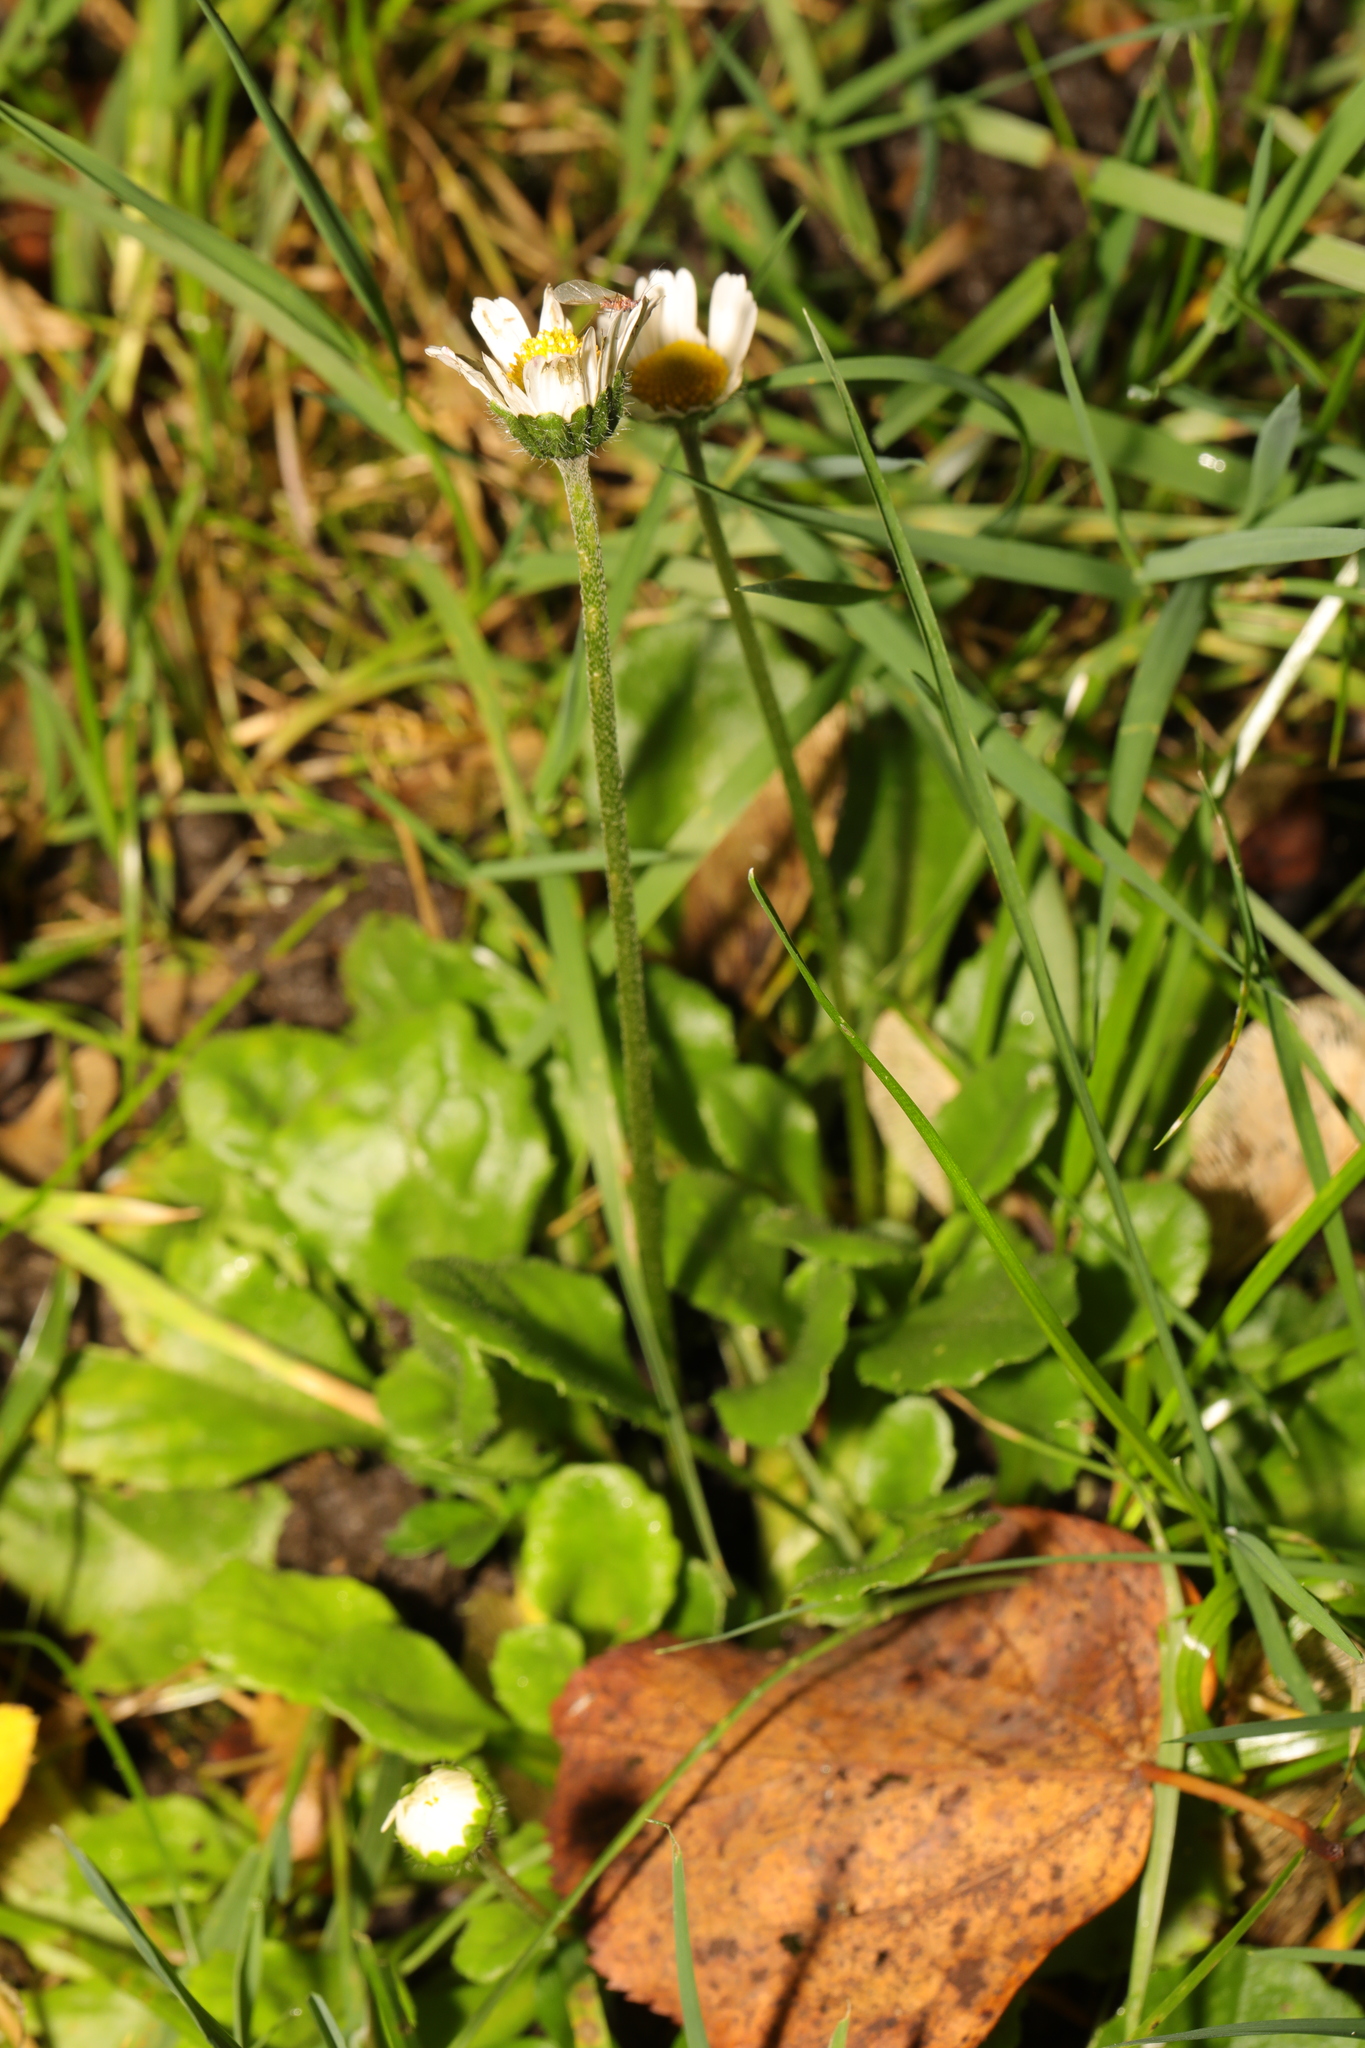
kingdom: Plantae
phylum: Tracheophyta
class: Magnoliopsida
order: Asterales
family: Asteraceae
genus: Bellis
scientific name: Bellis perennis
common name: Lawndaisy
